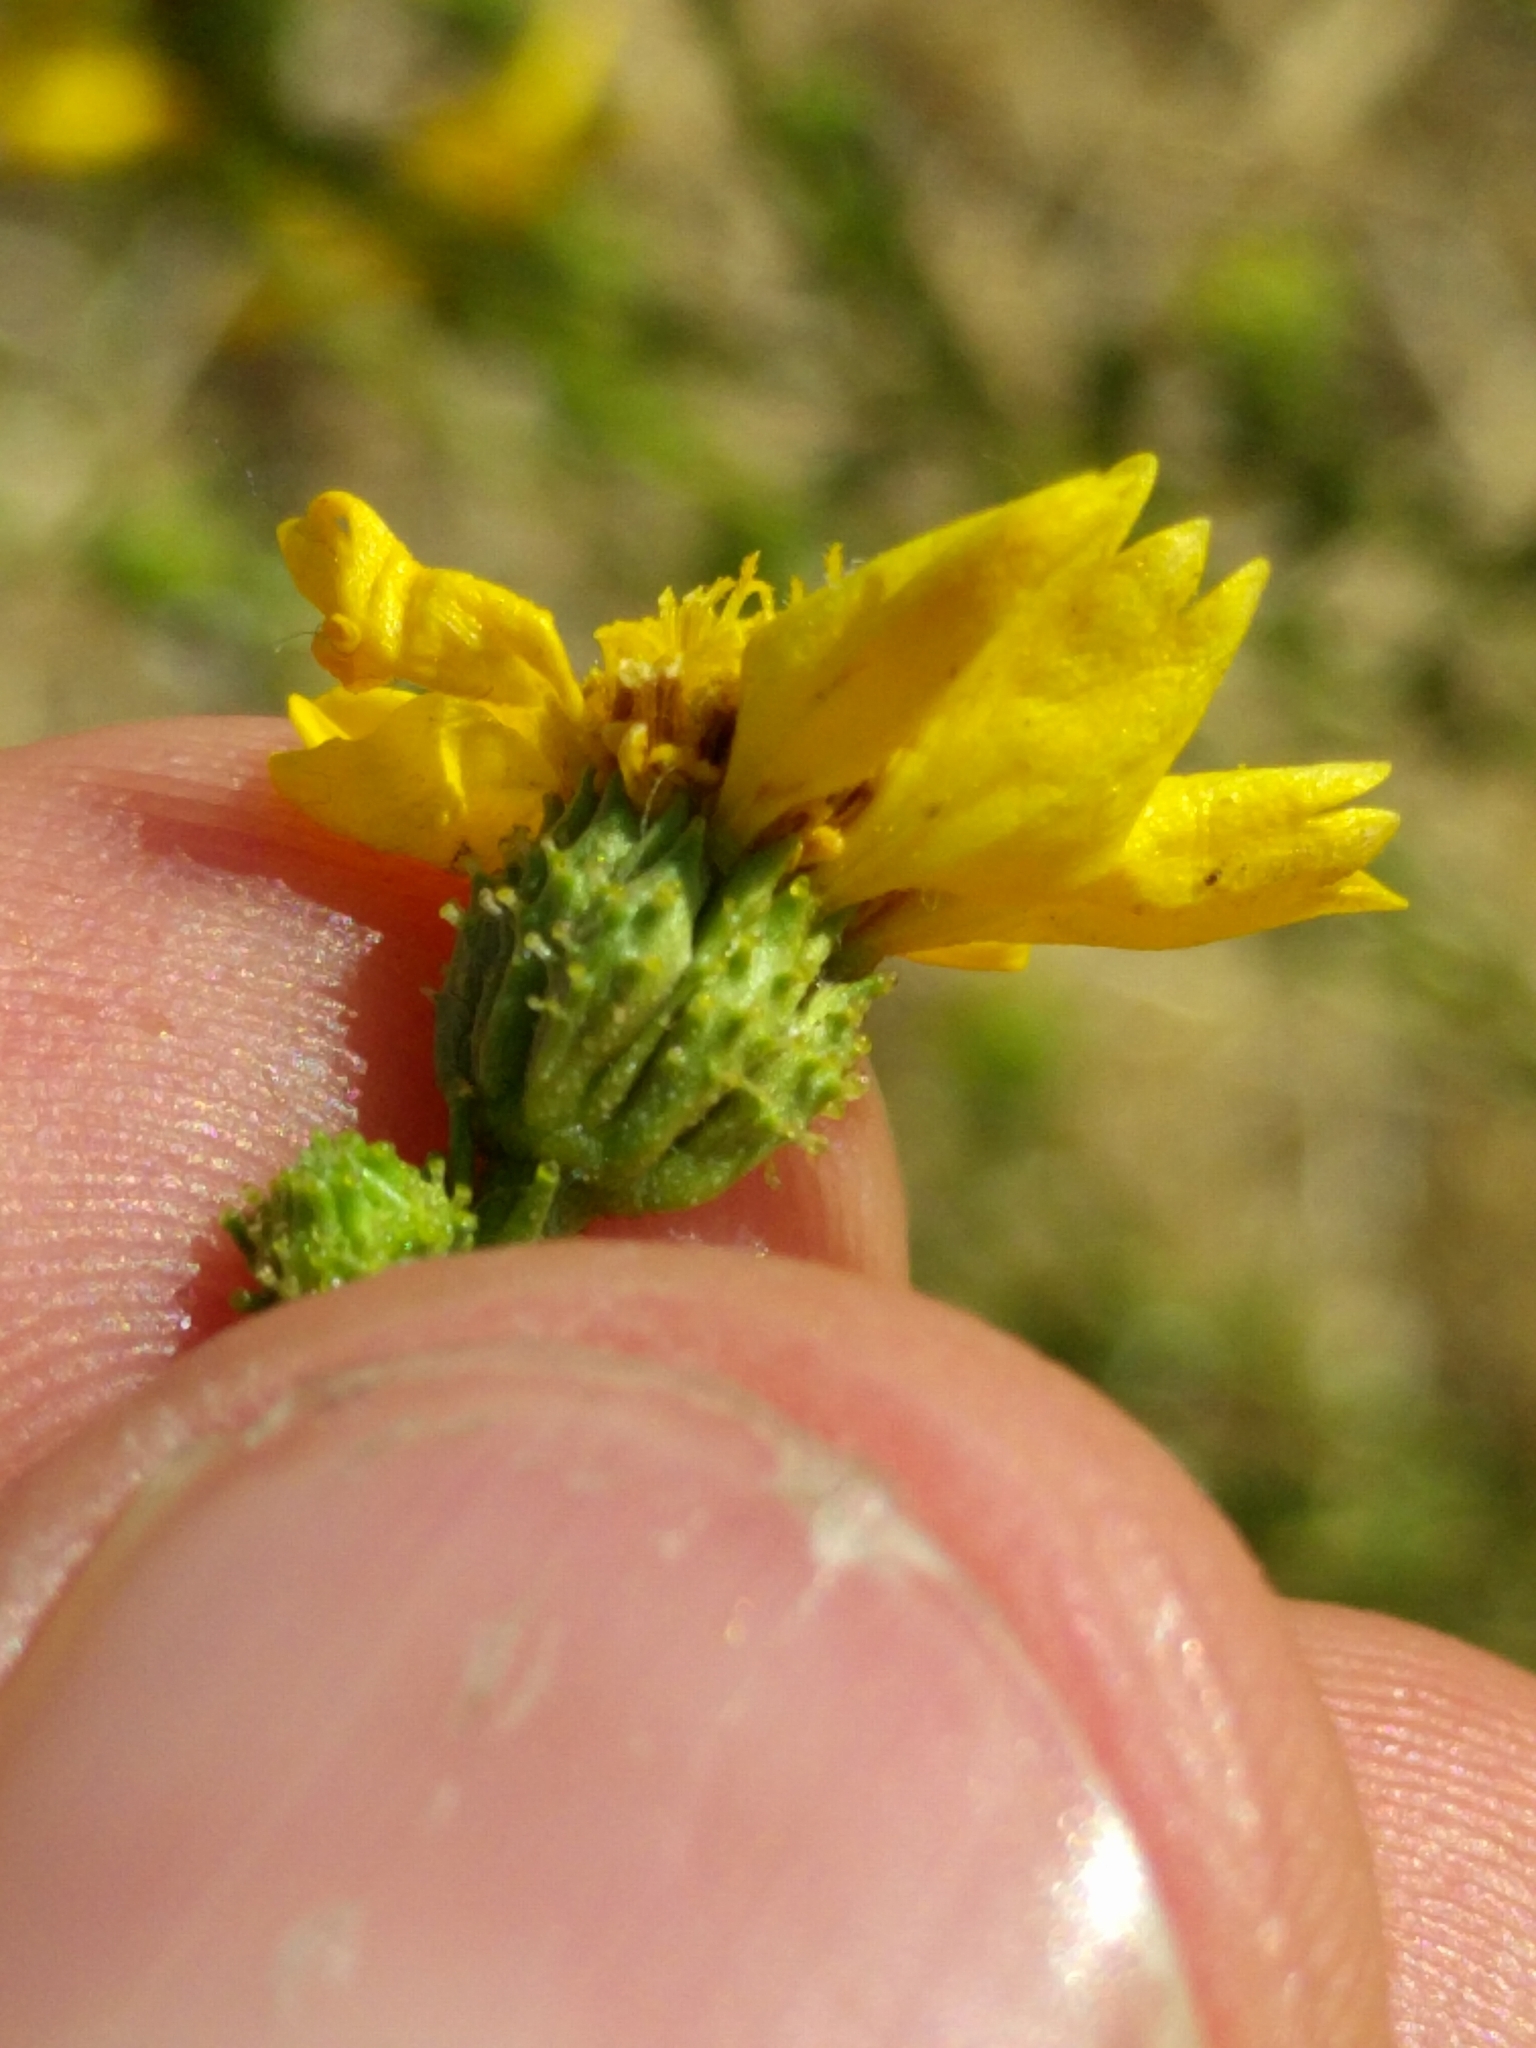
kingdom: Plantae
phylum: Tracheophyta
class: Magnoliopsida
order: Asterales
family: Asteraceae
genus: Holocarpha
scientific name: Holocarpha obconica
